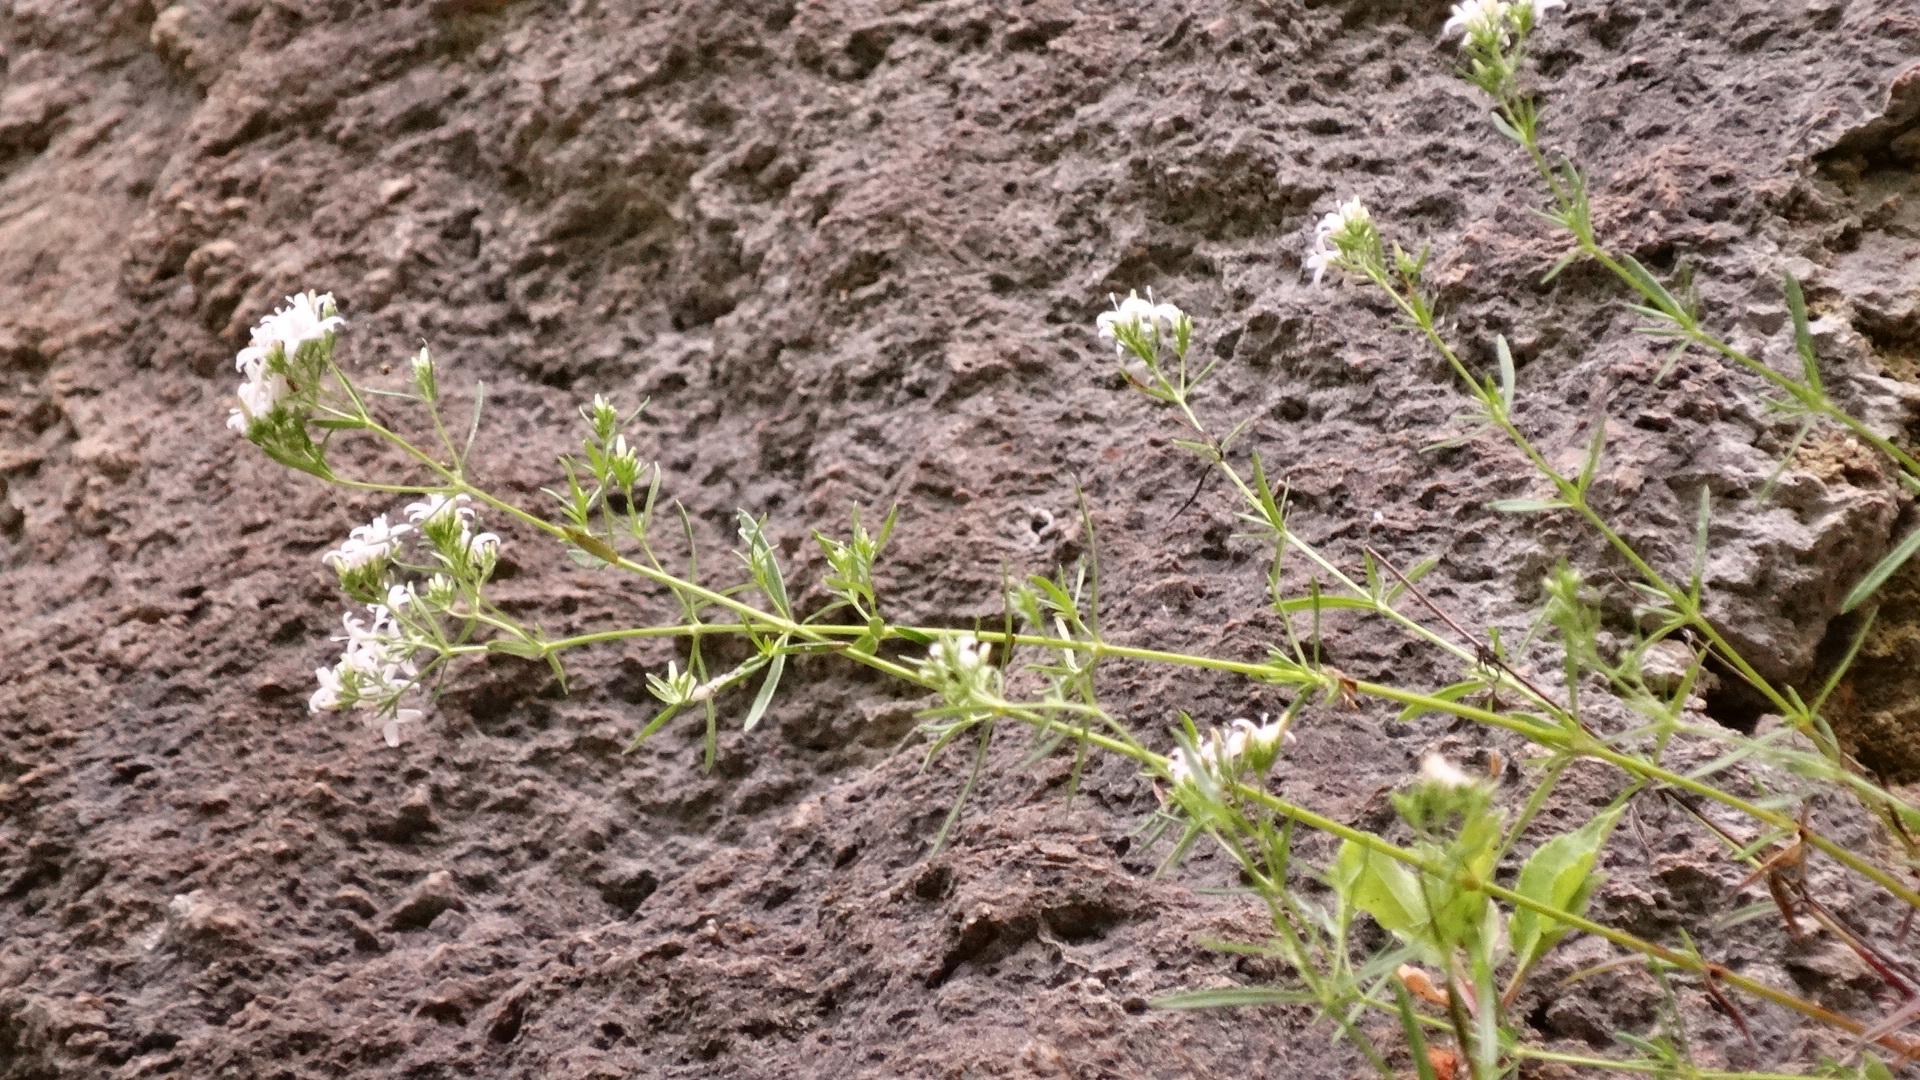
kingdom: Plantae
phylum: Tracheophyta
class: Magnoliopsida
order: Gentianales
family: Rubiaceae
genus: Stenaria
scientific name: Stenaria nigricans
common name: Diamondflowers
